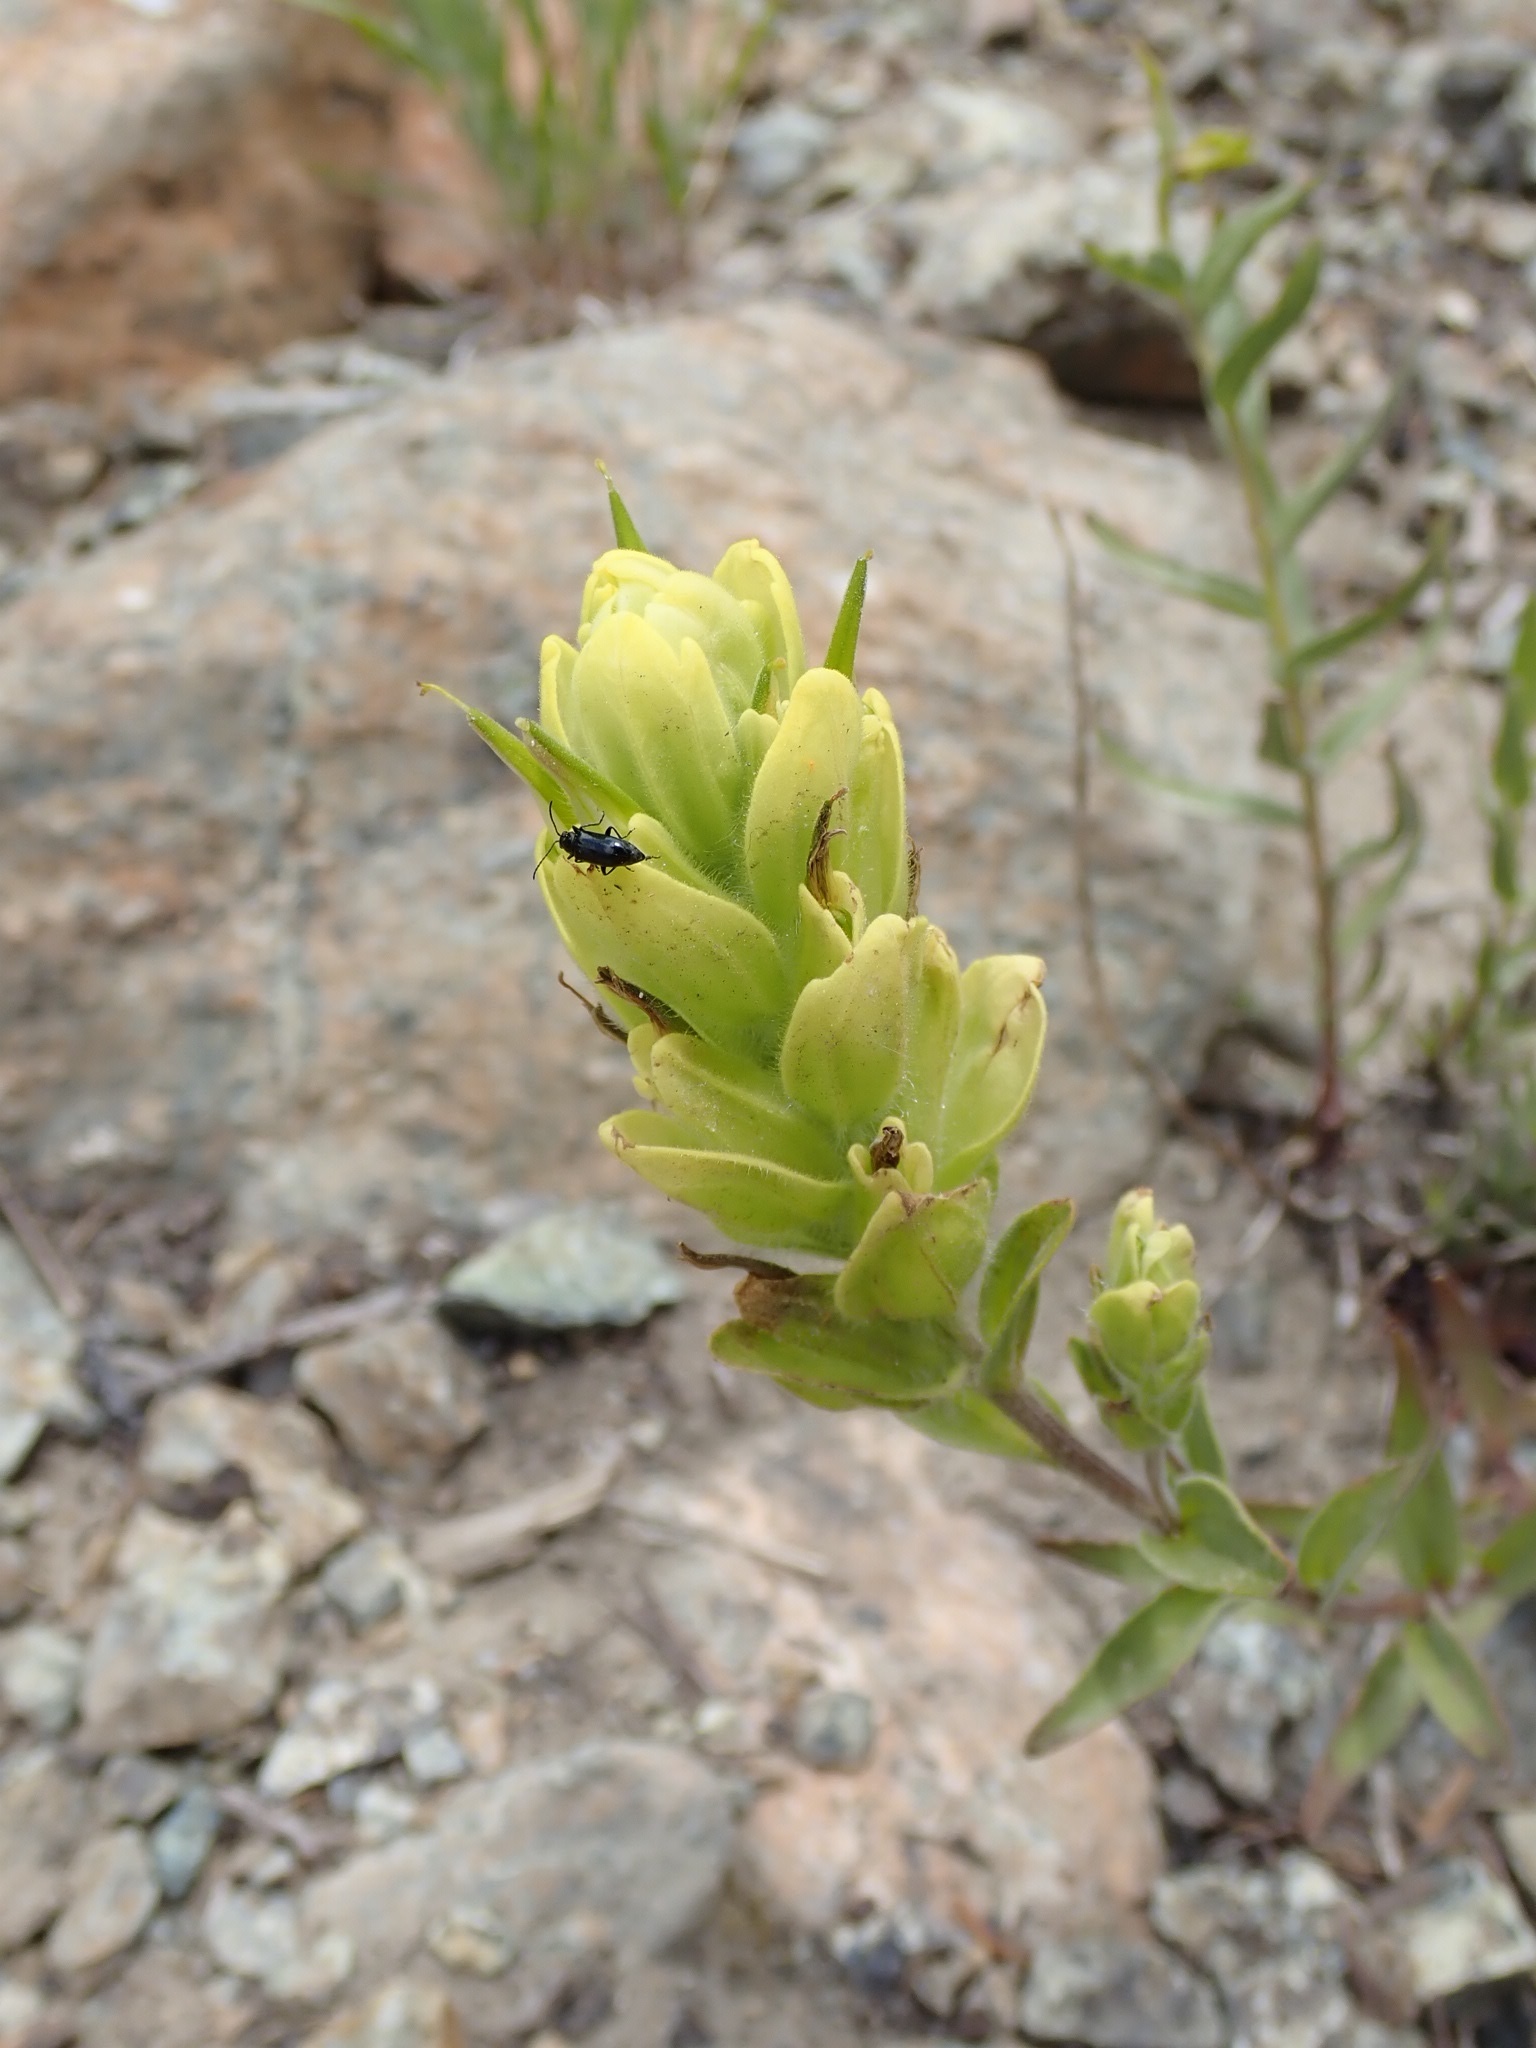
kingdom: Plantae
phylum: Tracheophyta
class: Magnoliopsida
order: Lamiales
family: Orobanchaceae
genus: Castilleja
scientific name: Castilleja elmeri
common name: Elmer's paintbrush
